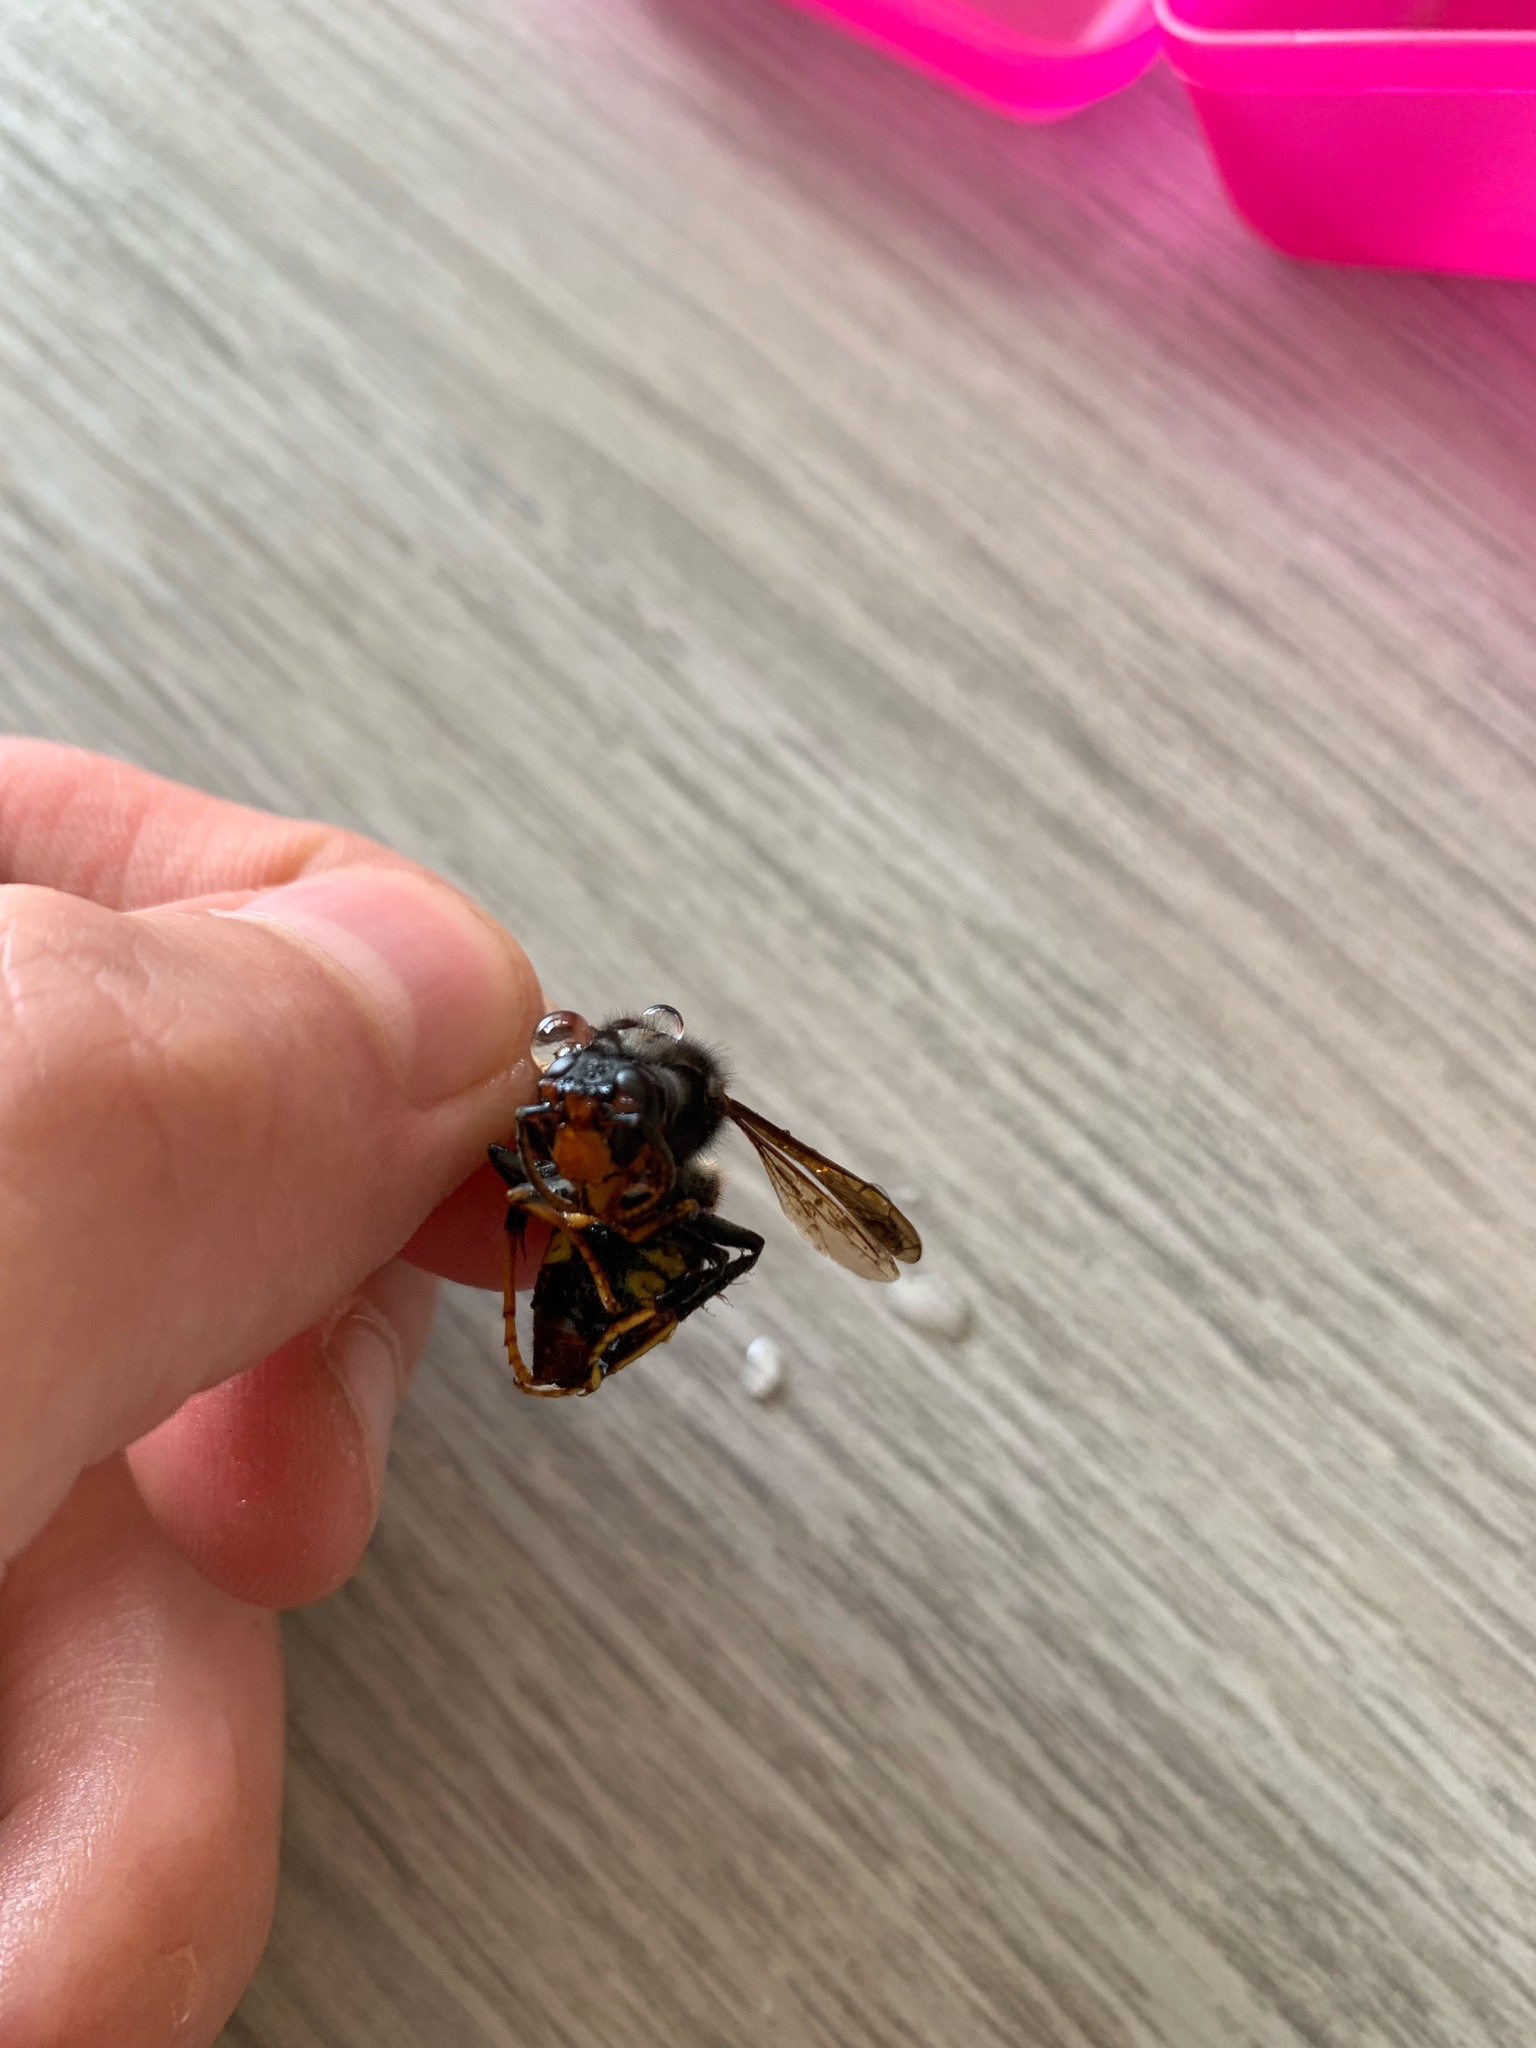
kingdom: Animalia
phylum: Arthropoda
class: Insecta
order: Hymenoptera
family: Vespidae
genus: Vespa
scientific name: Vespa velutina
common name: Asian hornet
